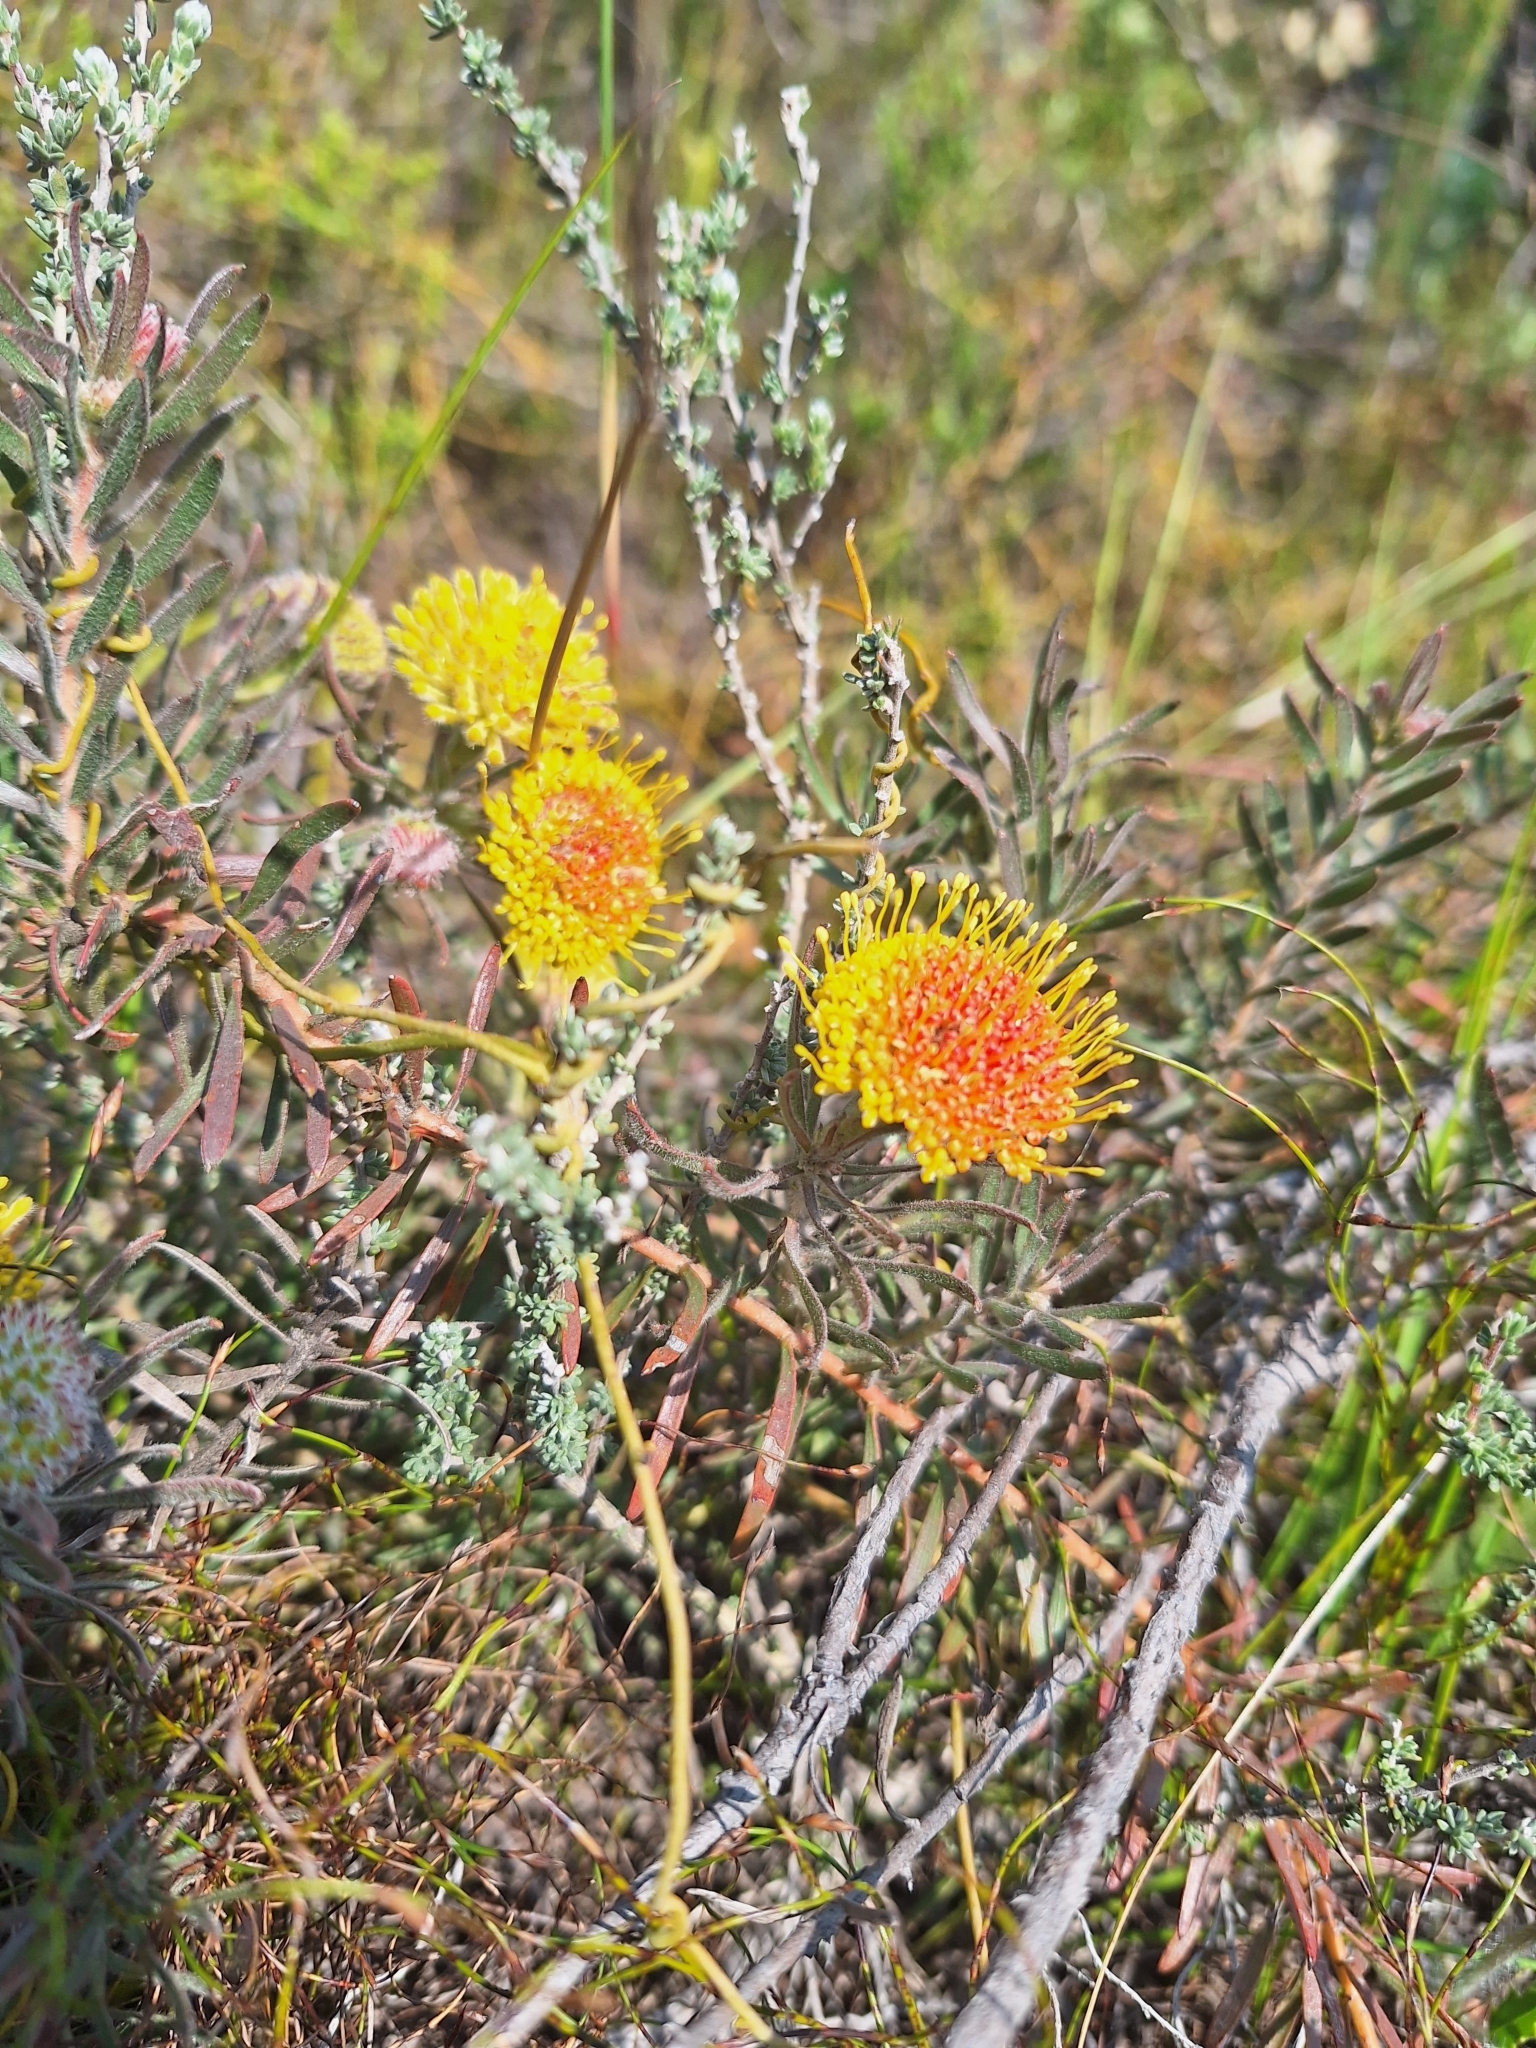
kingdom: Plantae
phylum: Tracheophyta
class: Magnoliopsida
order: Proteales
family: Proteaceae
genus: Leucospermum
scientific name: Leucospermum prostratum
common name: Yellow-trailing pincushion
